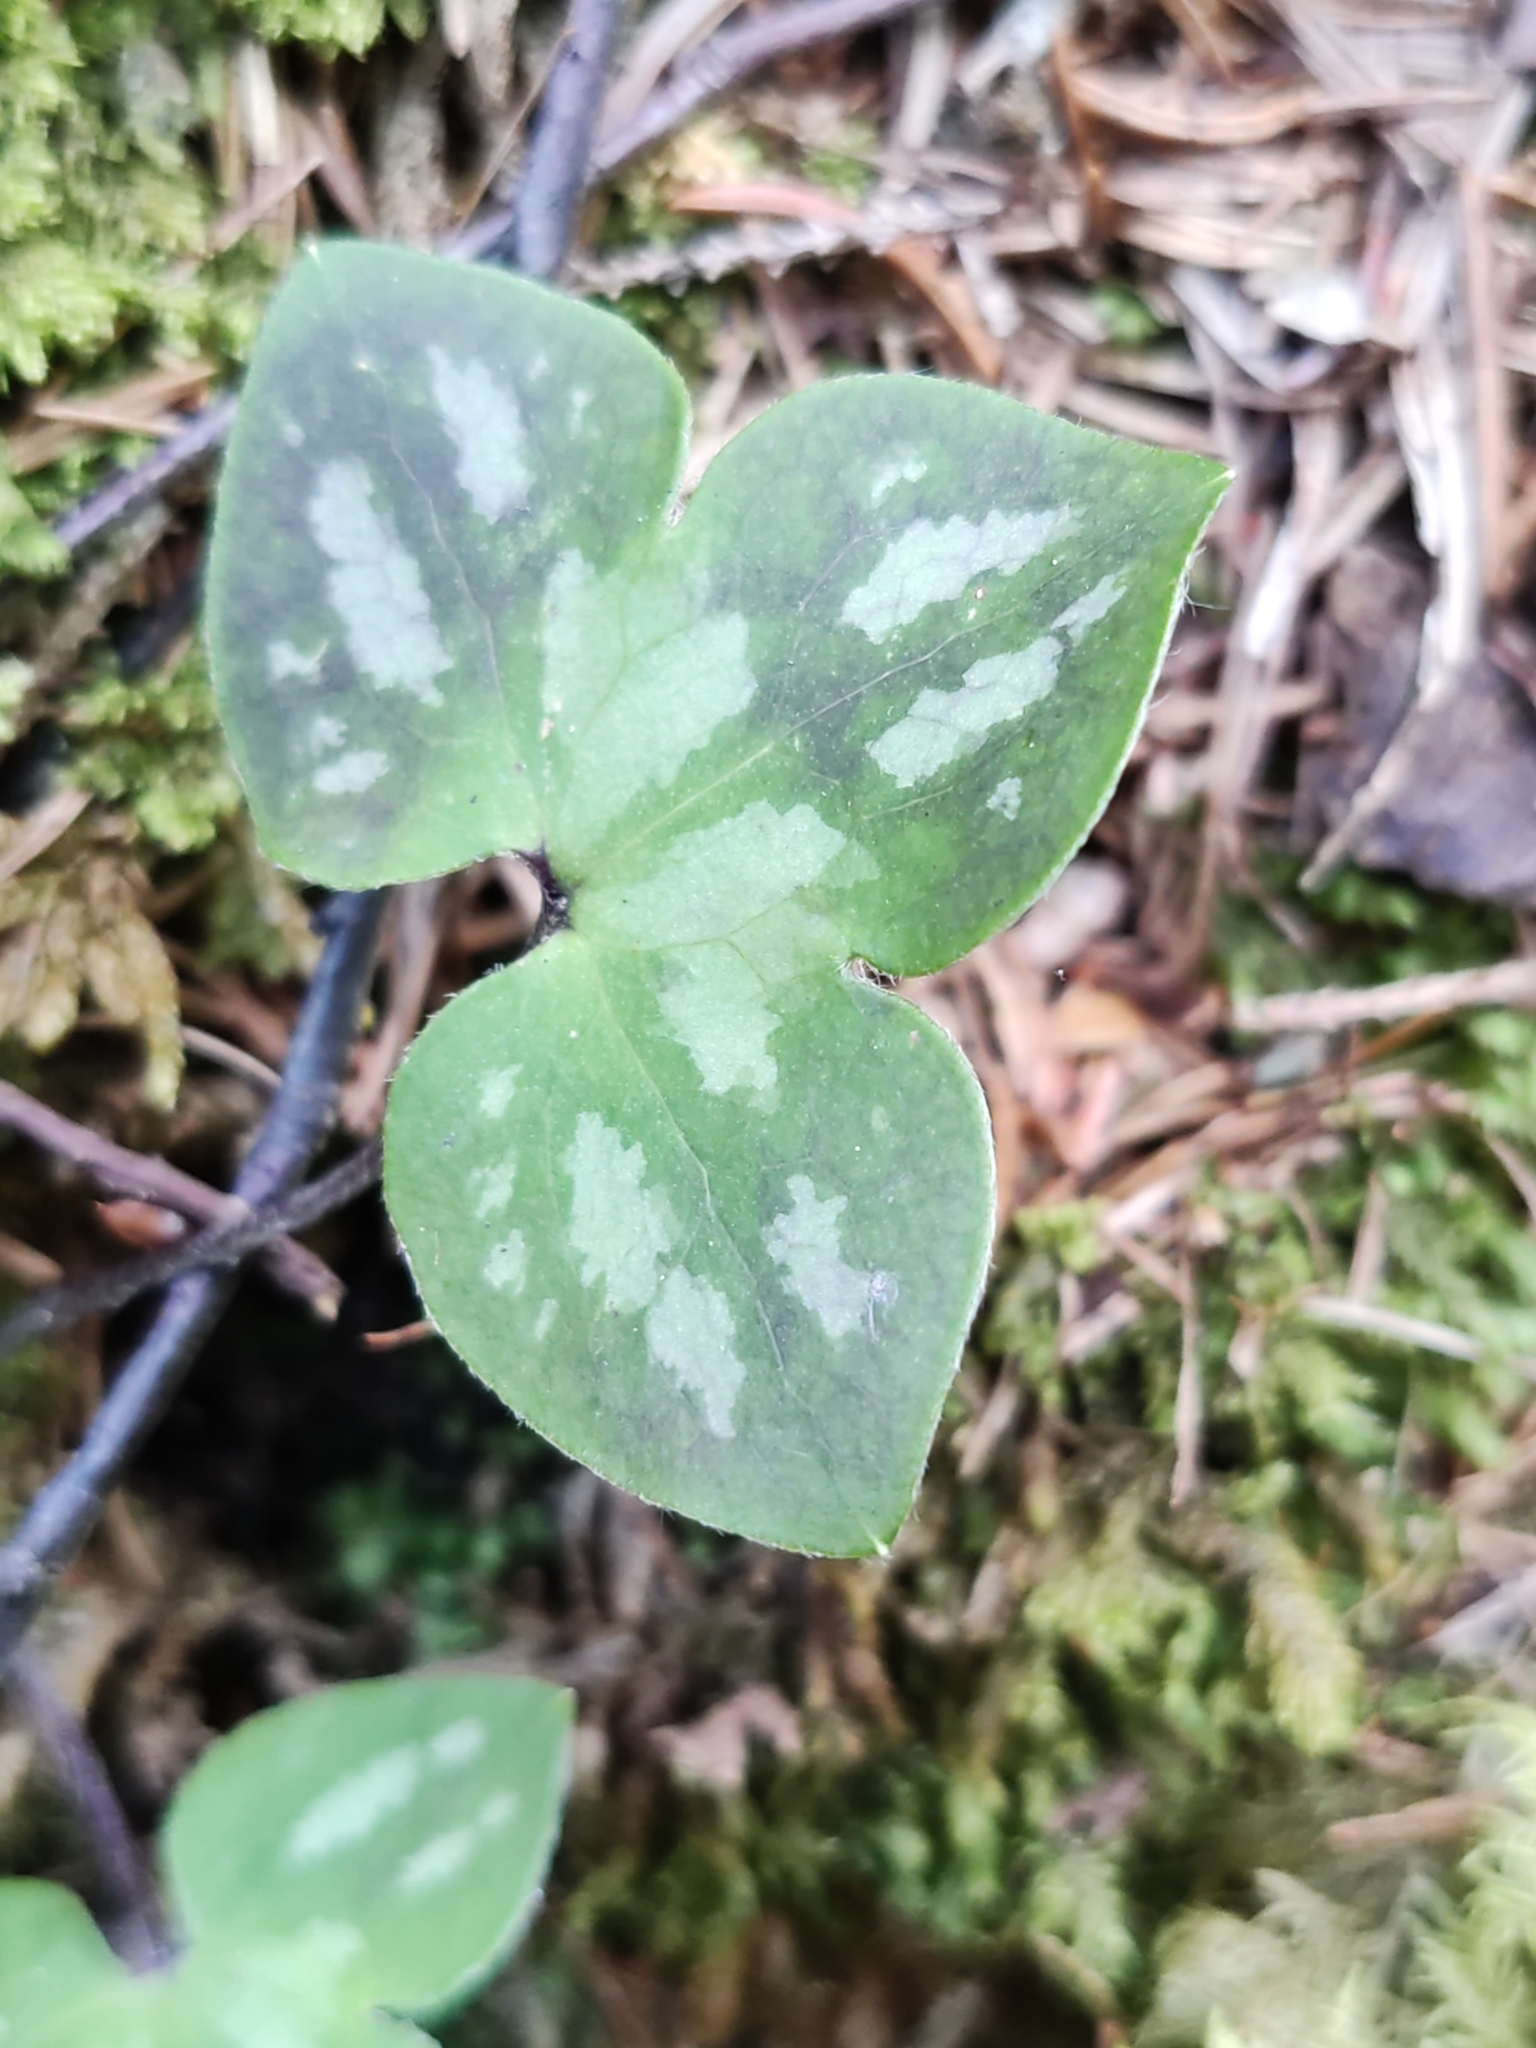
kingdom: Plantae
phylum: Tracheophyta
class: Magnoliopsida
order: Ranunculales
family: Ranunculaceae
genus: Hepatica
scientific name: Hepatica nobilis
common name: Liverleaf
